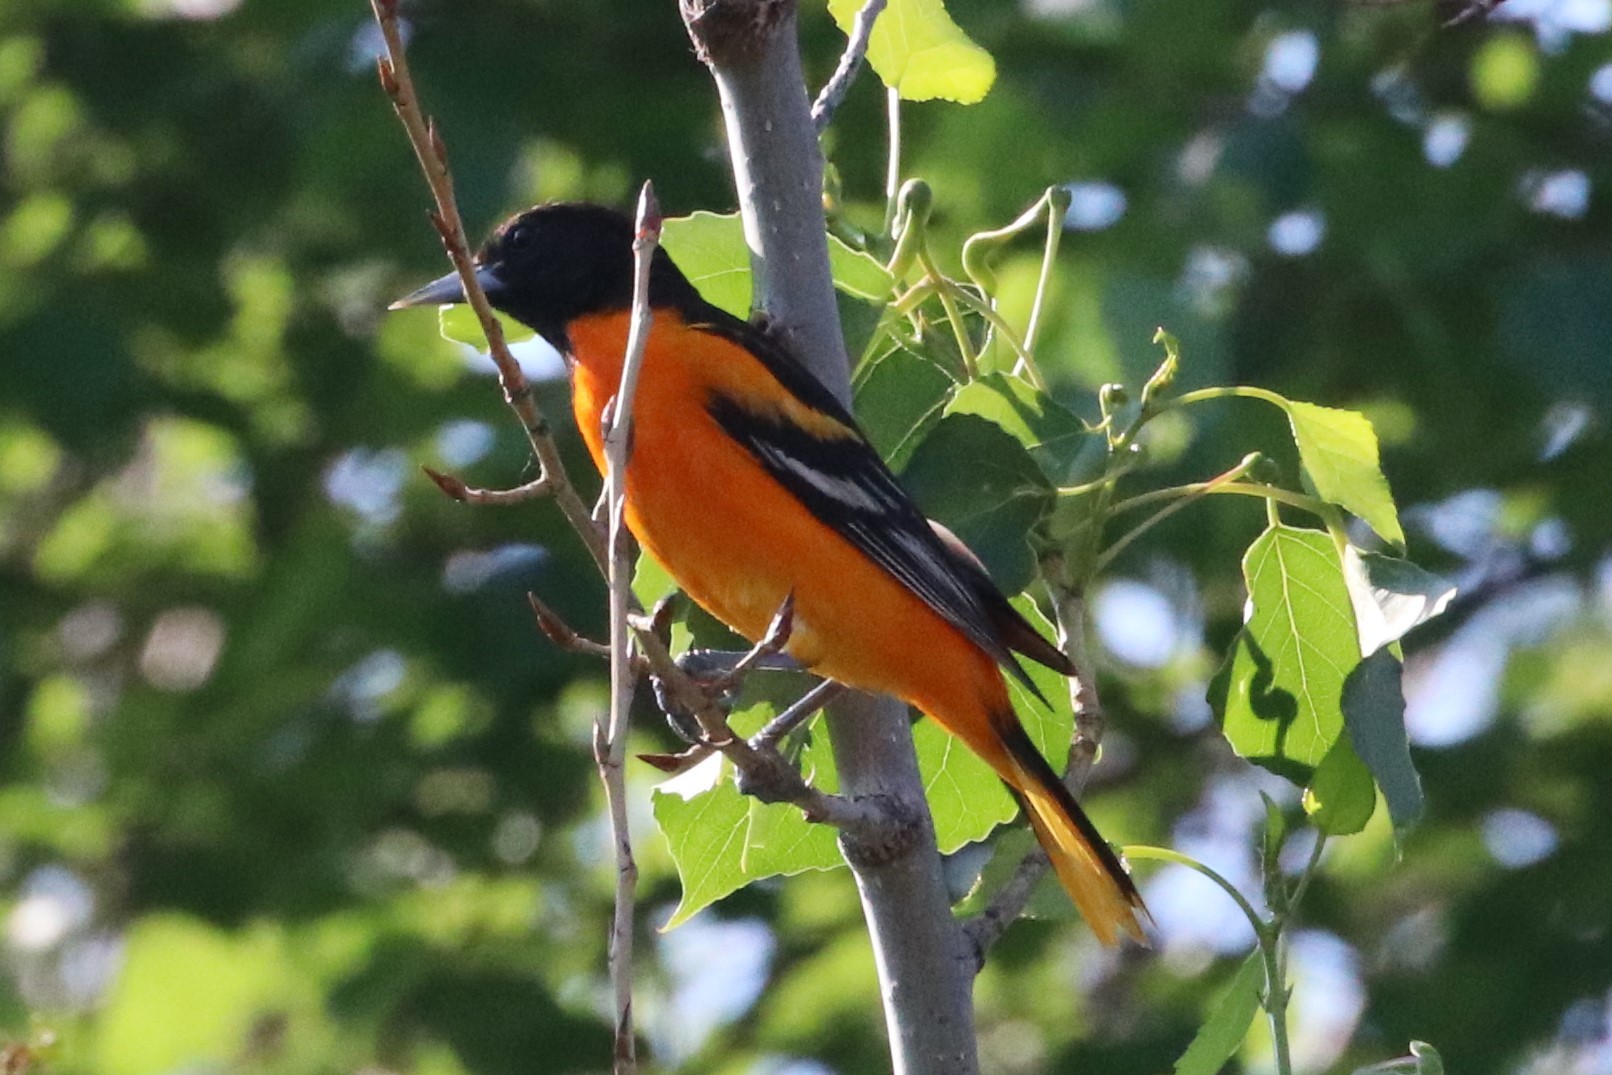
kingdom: Animalia
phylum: Chordata
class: Aves
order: Passeriformes
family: Icteridae
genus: Icterus
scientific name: Icterus galbula
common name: Baltimore oriole
